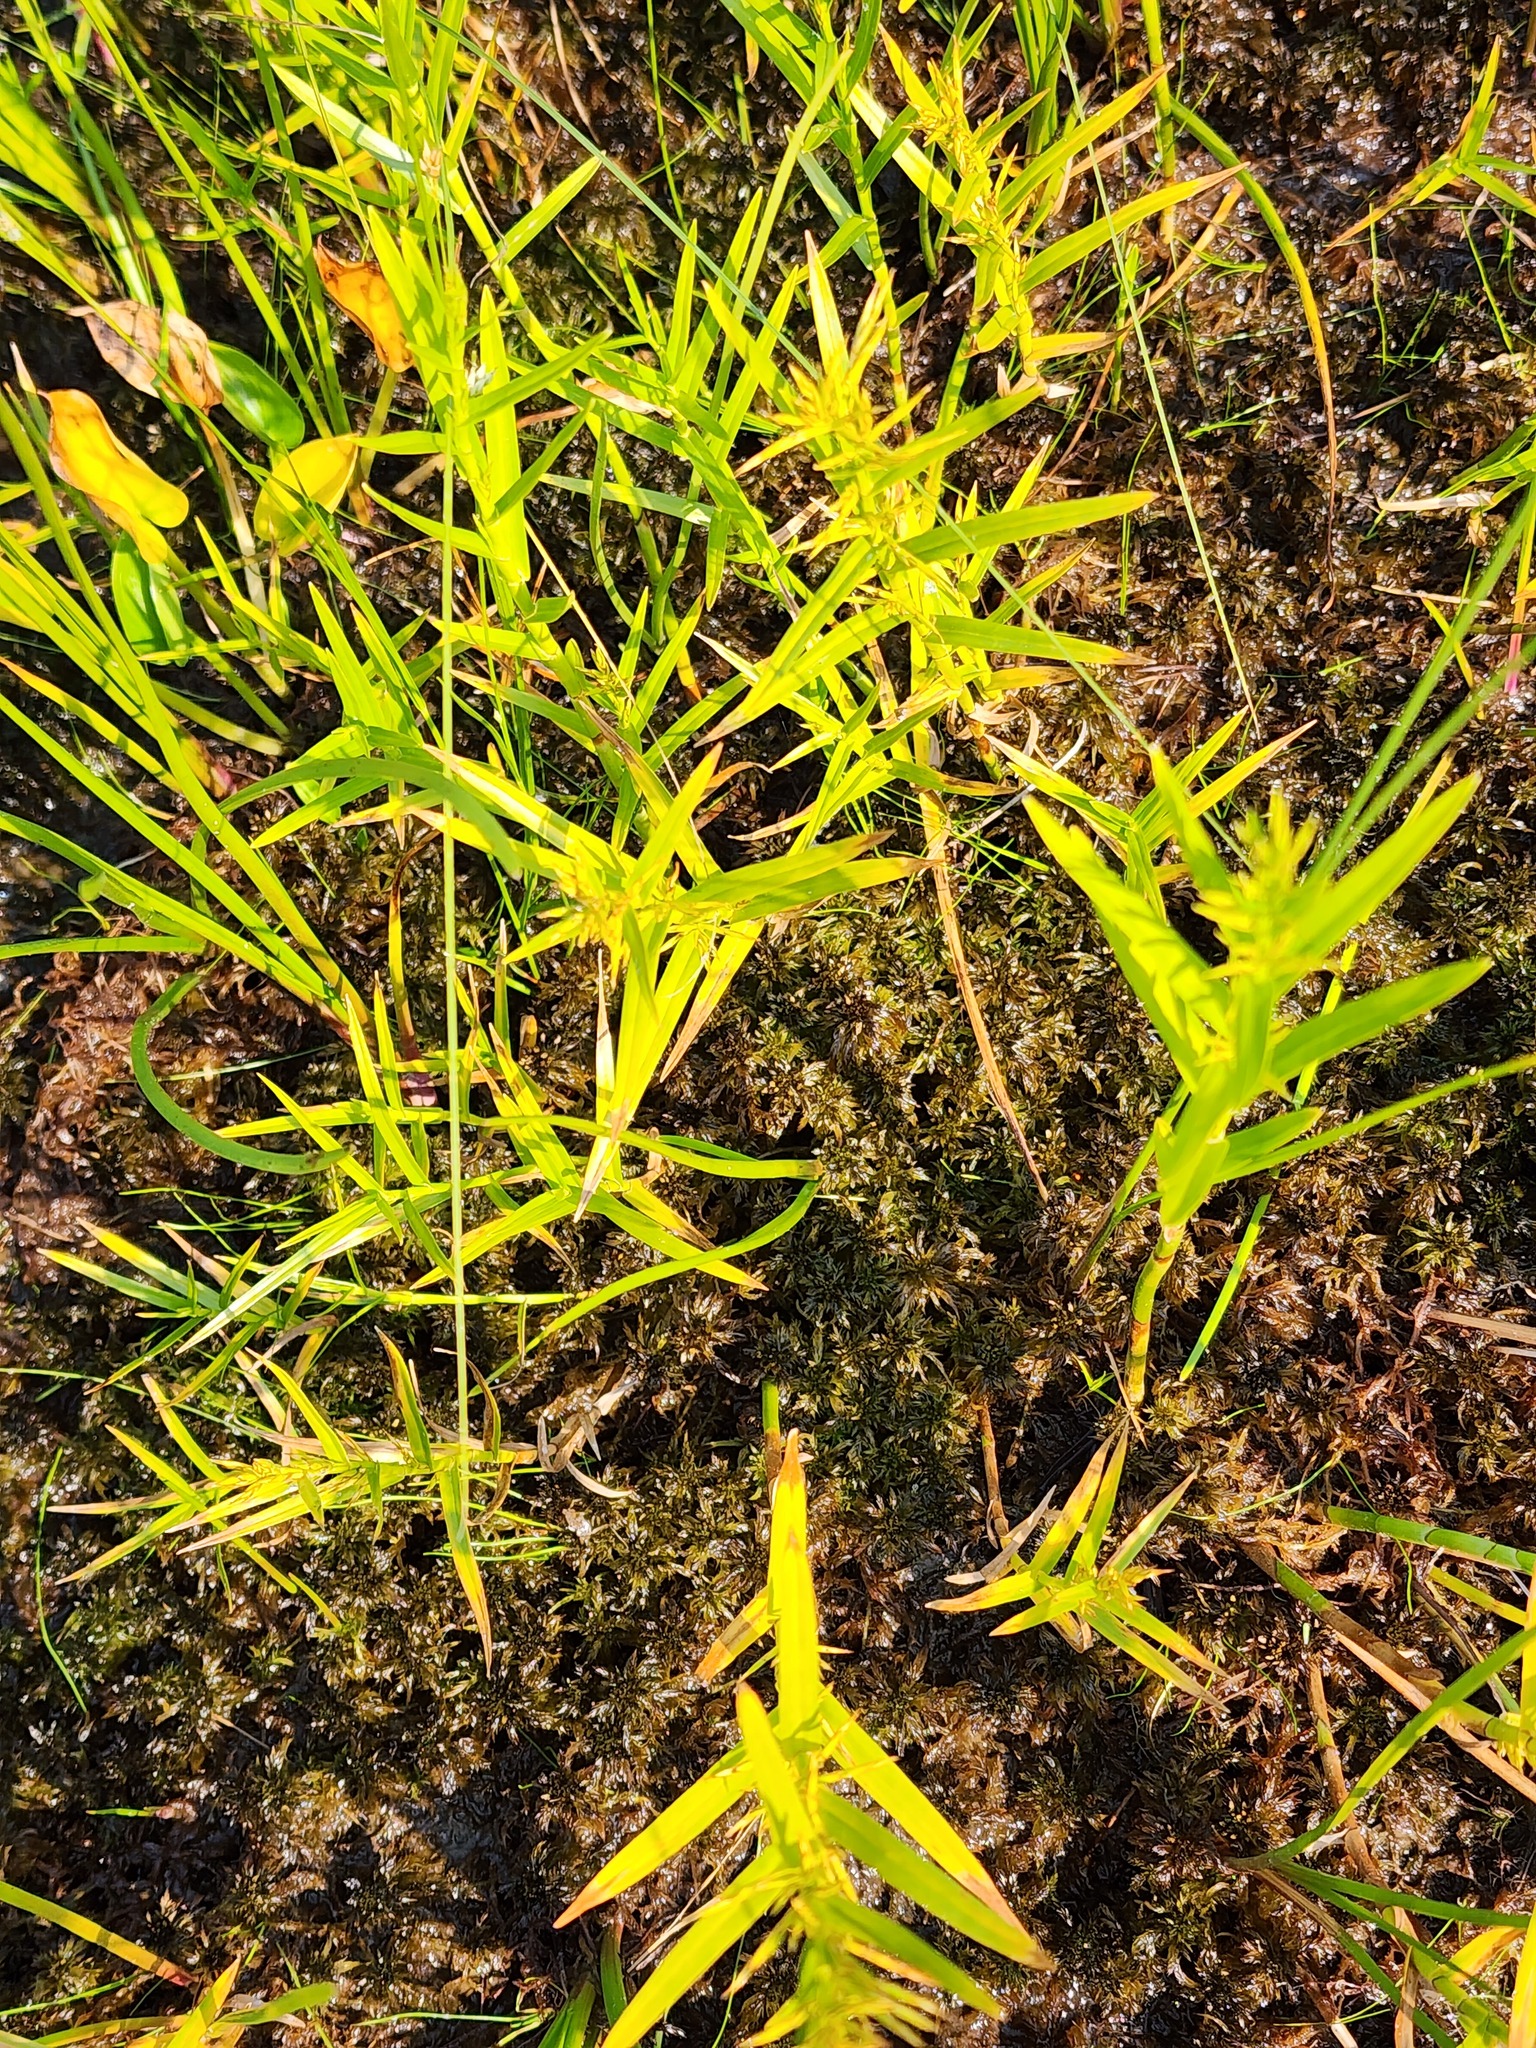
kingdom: Plantae
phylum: Tracheophyta
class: Liliopsida
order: Poales
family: Cyperaceae
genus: Dulichium
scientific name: Dulichium arundinaceum
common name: Three-way sedge
